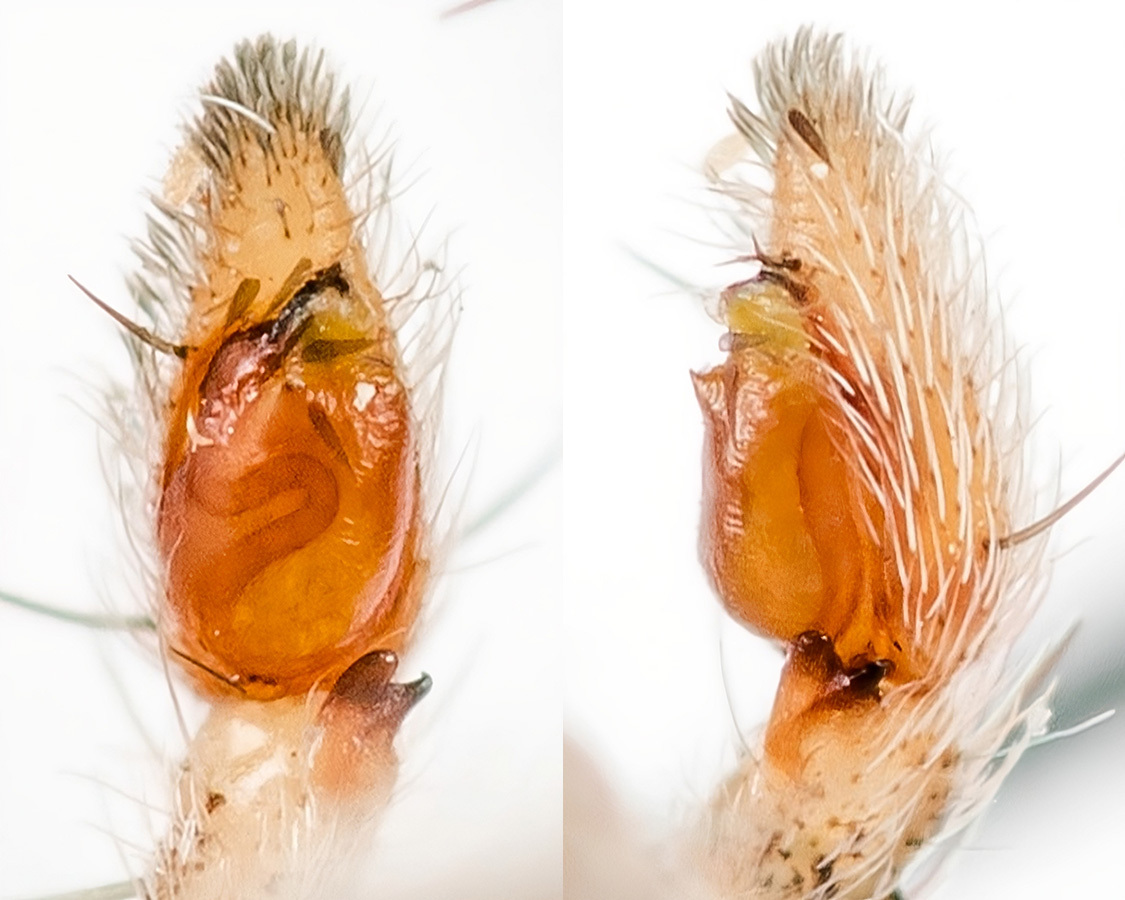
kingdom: Animalia
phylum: Arthropoda
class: Arachnida
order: Araneae
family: Philodromidae
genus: Thanatus
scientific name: Thanatus fabricii
